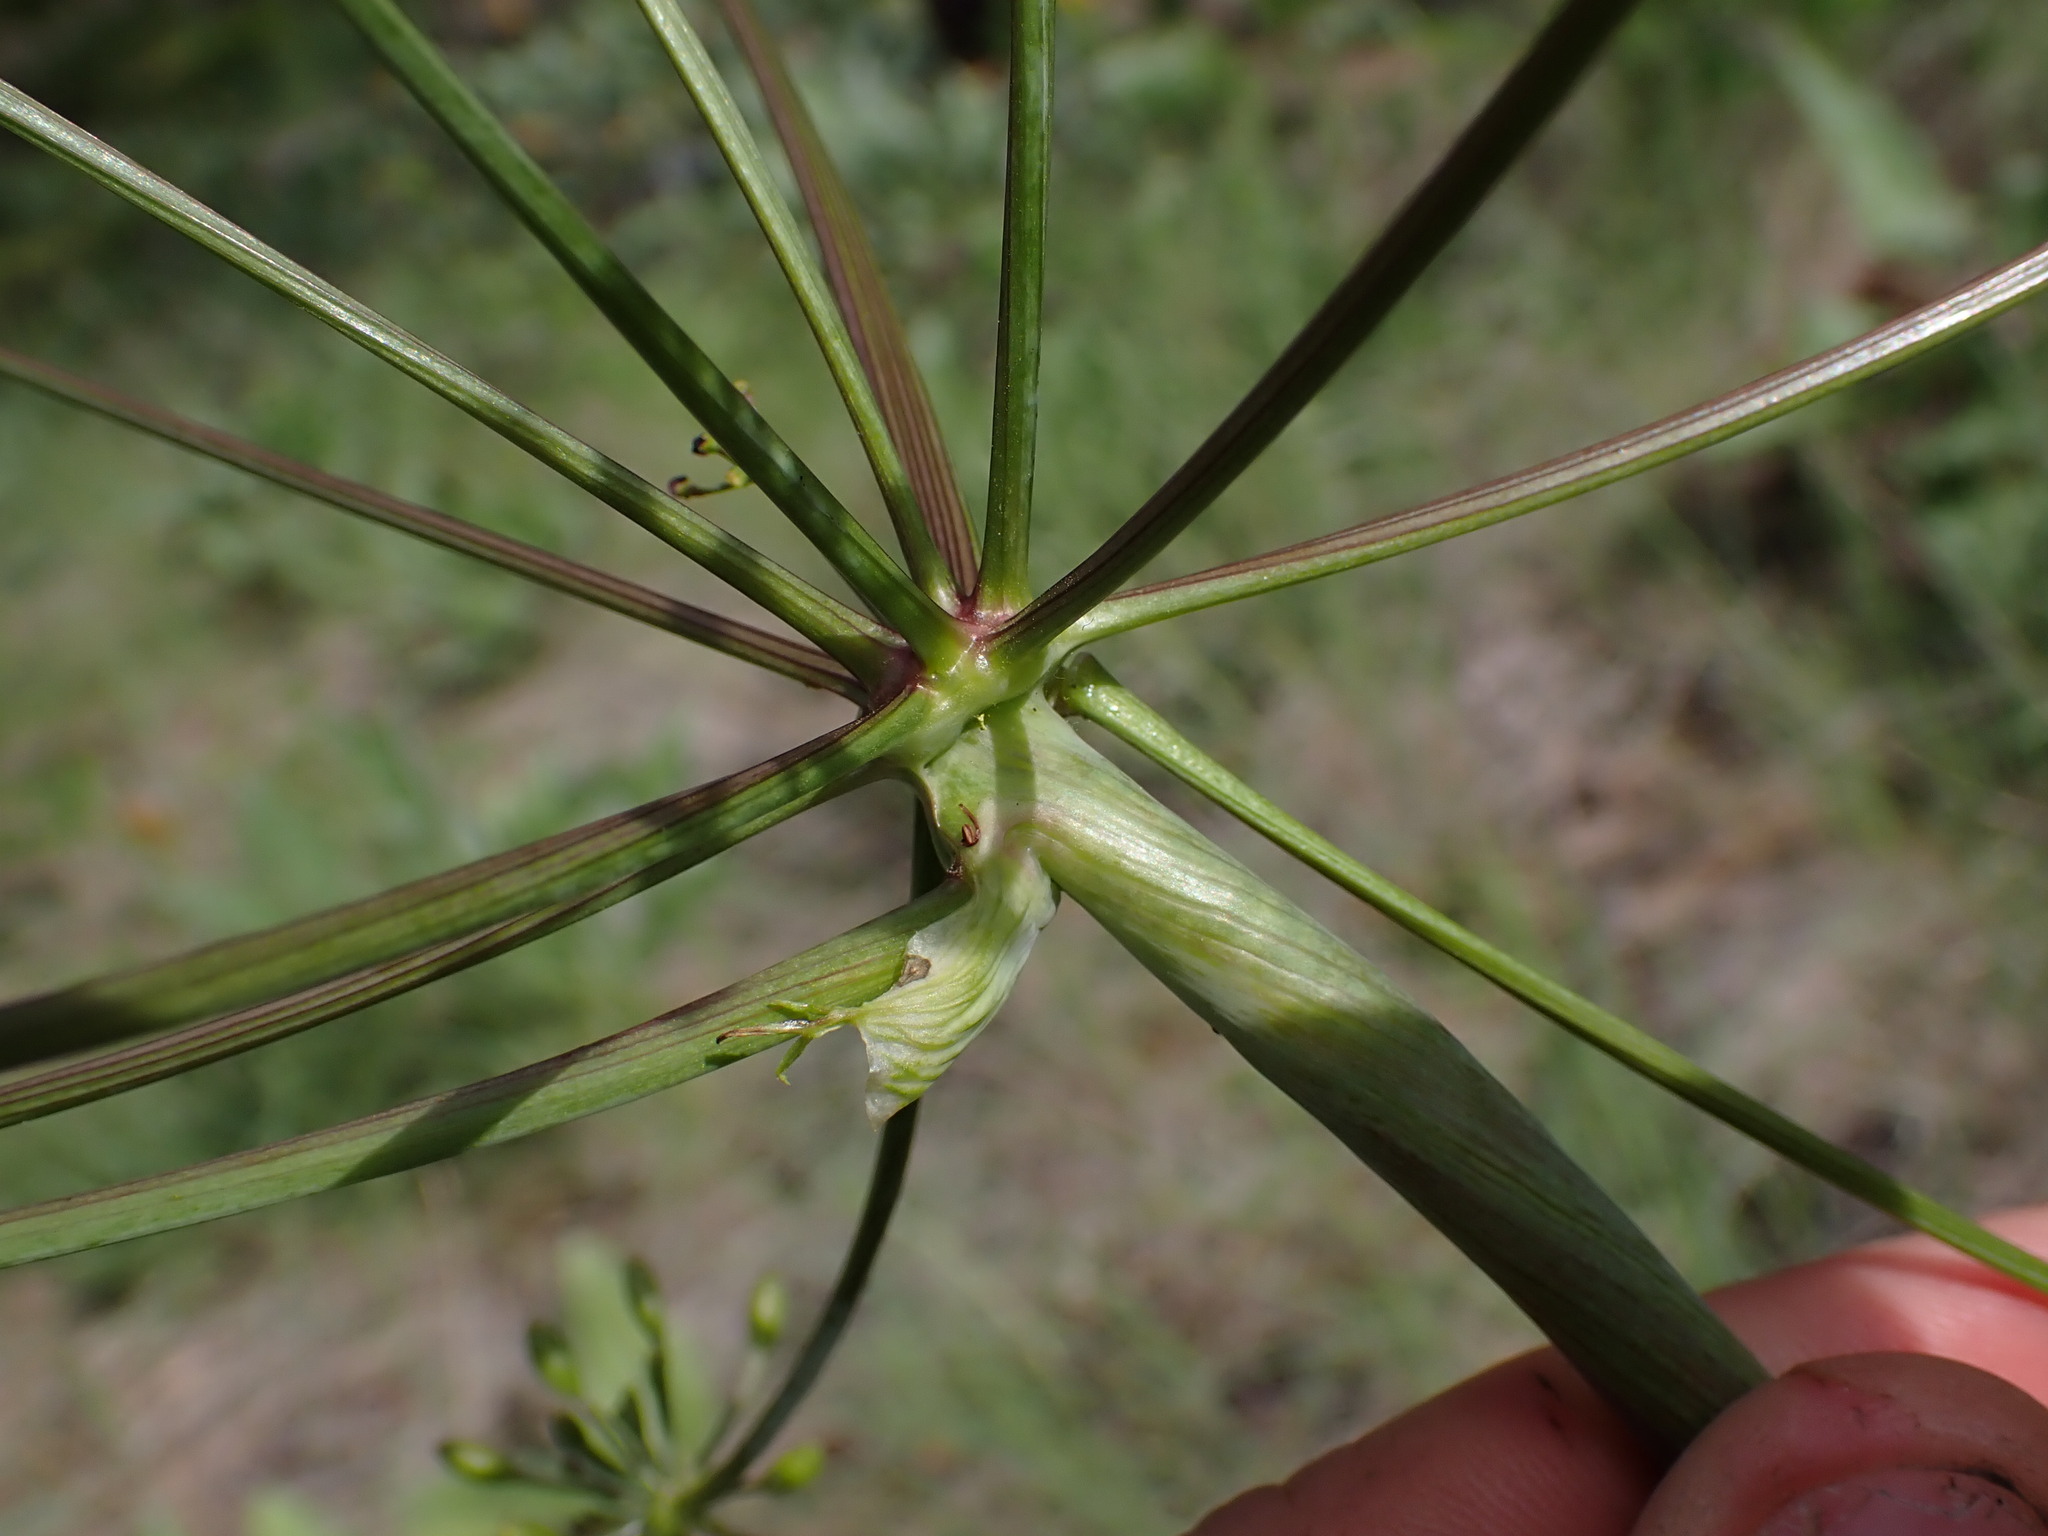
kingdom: Plantae
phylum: Tracheophyta
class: Magnoliopsida
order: Apiales
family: Apiaceae
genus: Lomatium
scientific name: Lomatium multifidum
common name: Carrot-leaved biscuitroot
